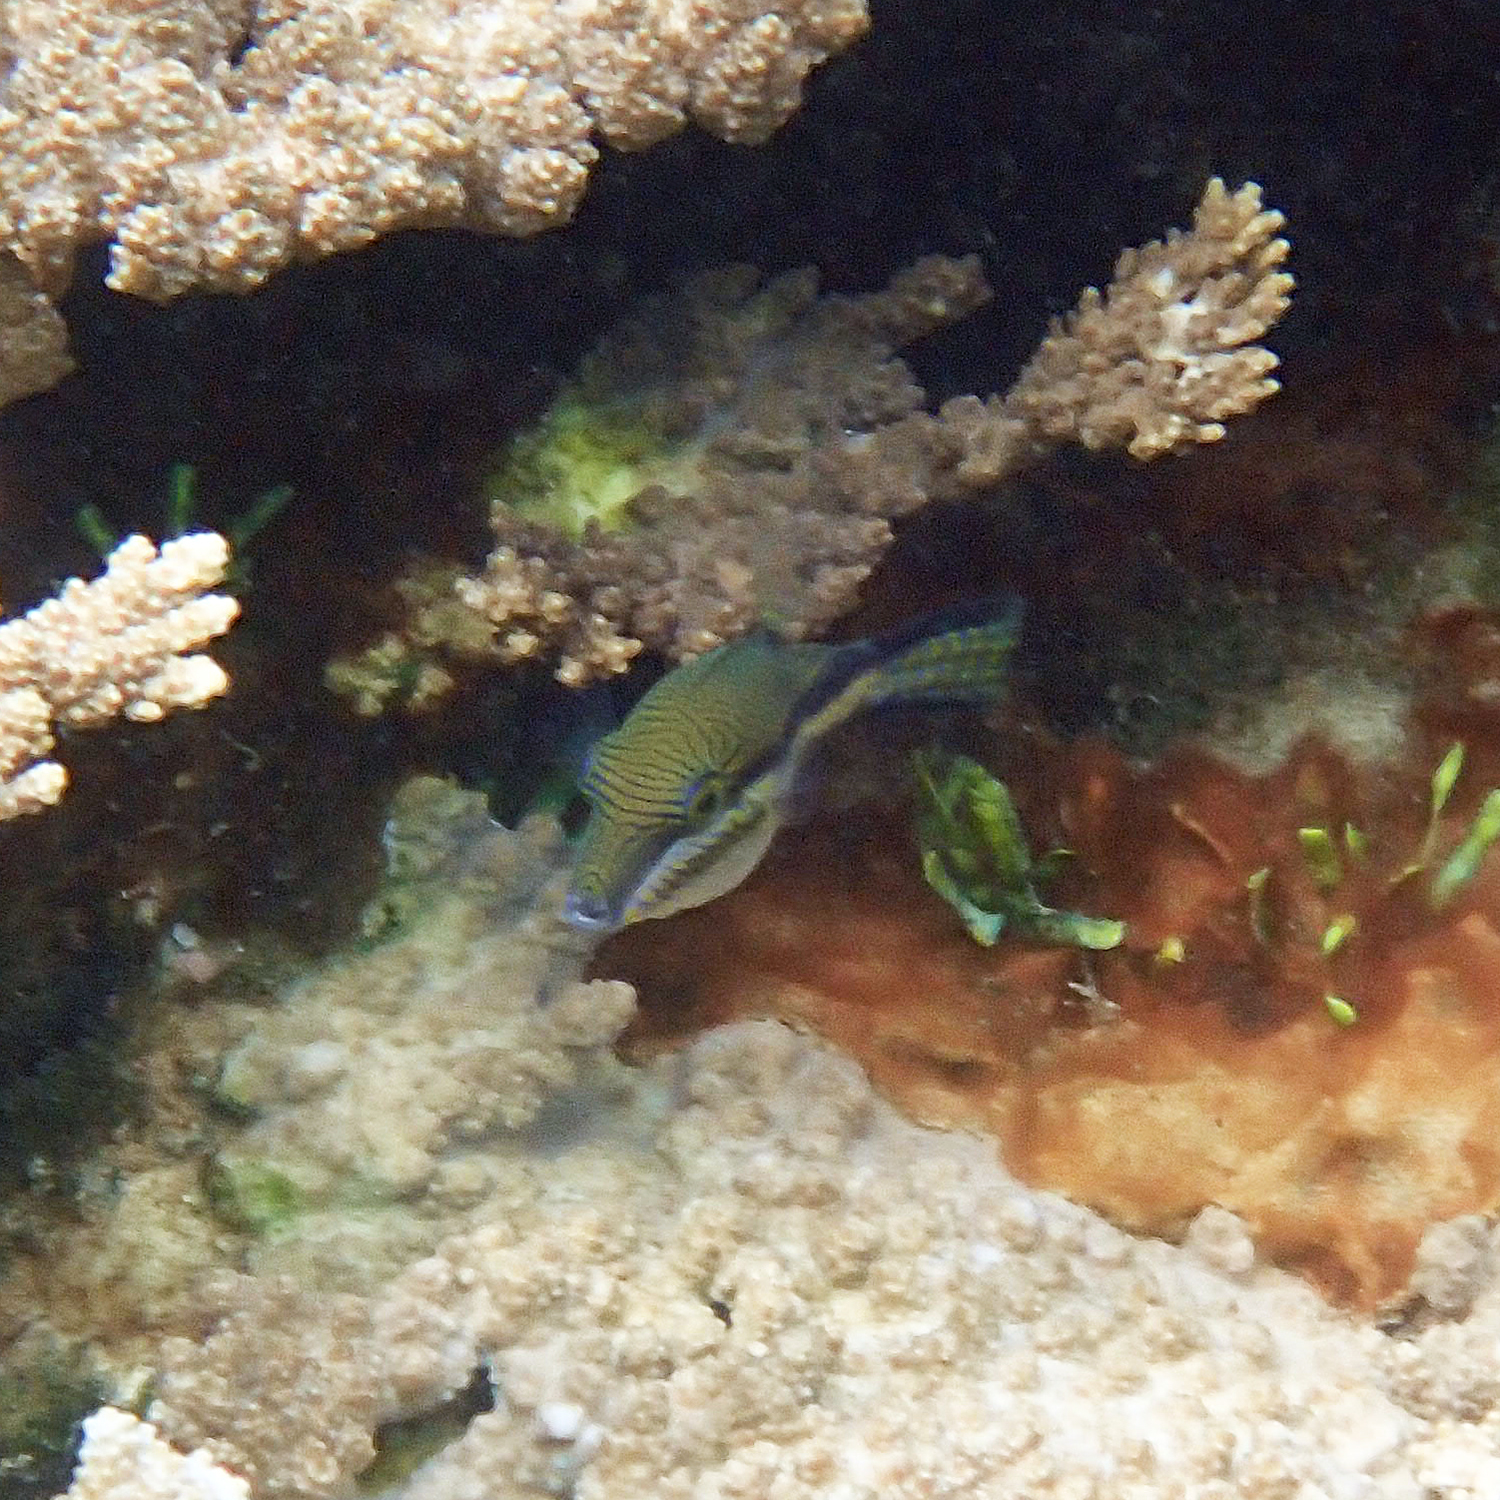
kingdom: Animalia
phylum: Chordata
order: Tetraodontiformes
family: Tetraodontidae
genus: Canthigaster
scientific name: Canthigaster callisterna
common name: Clown toado
